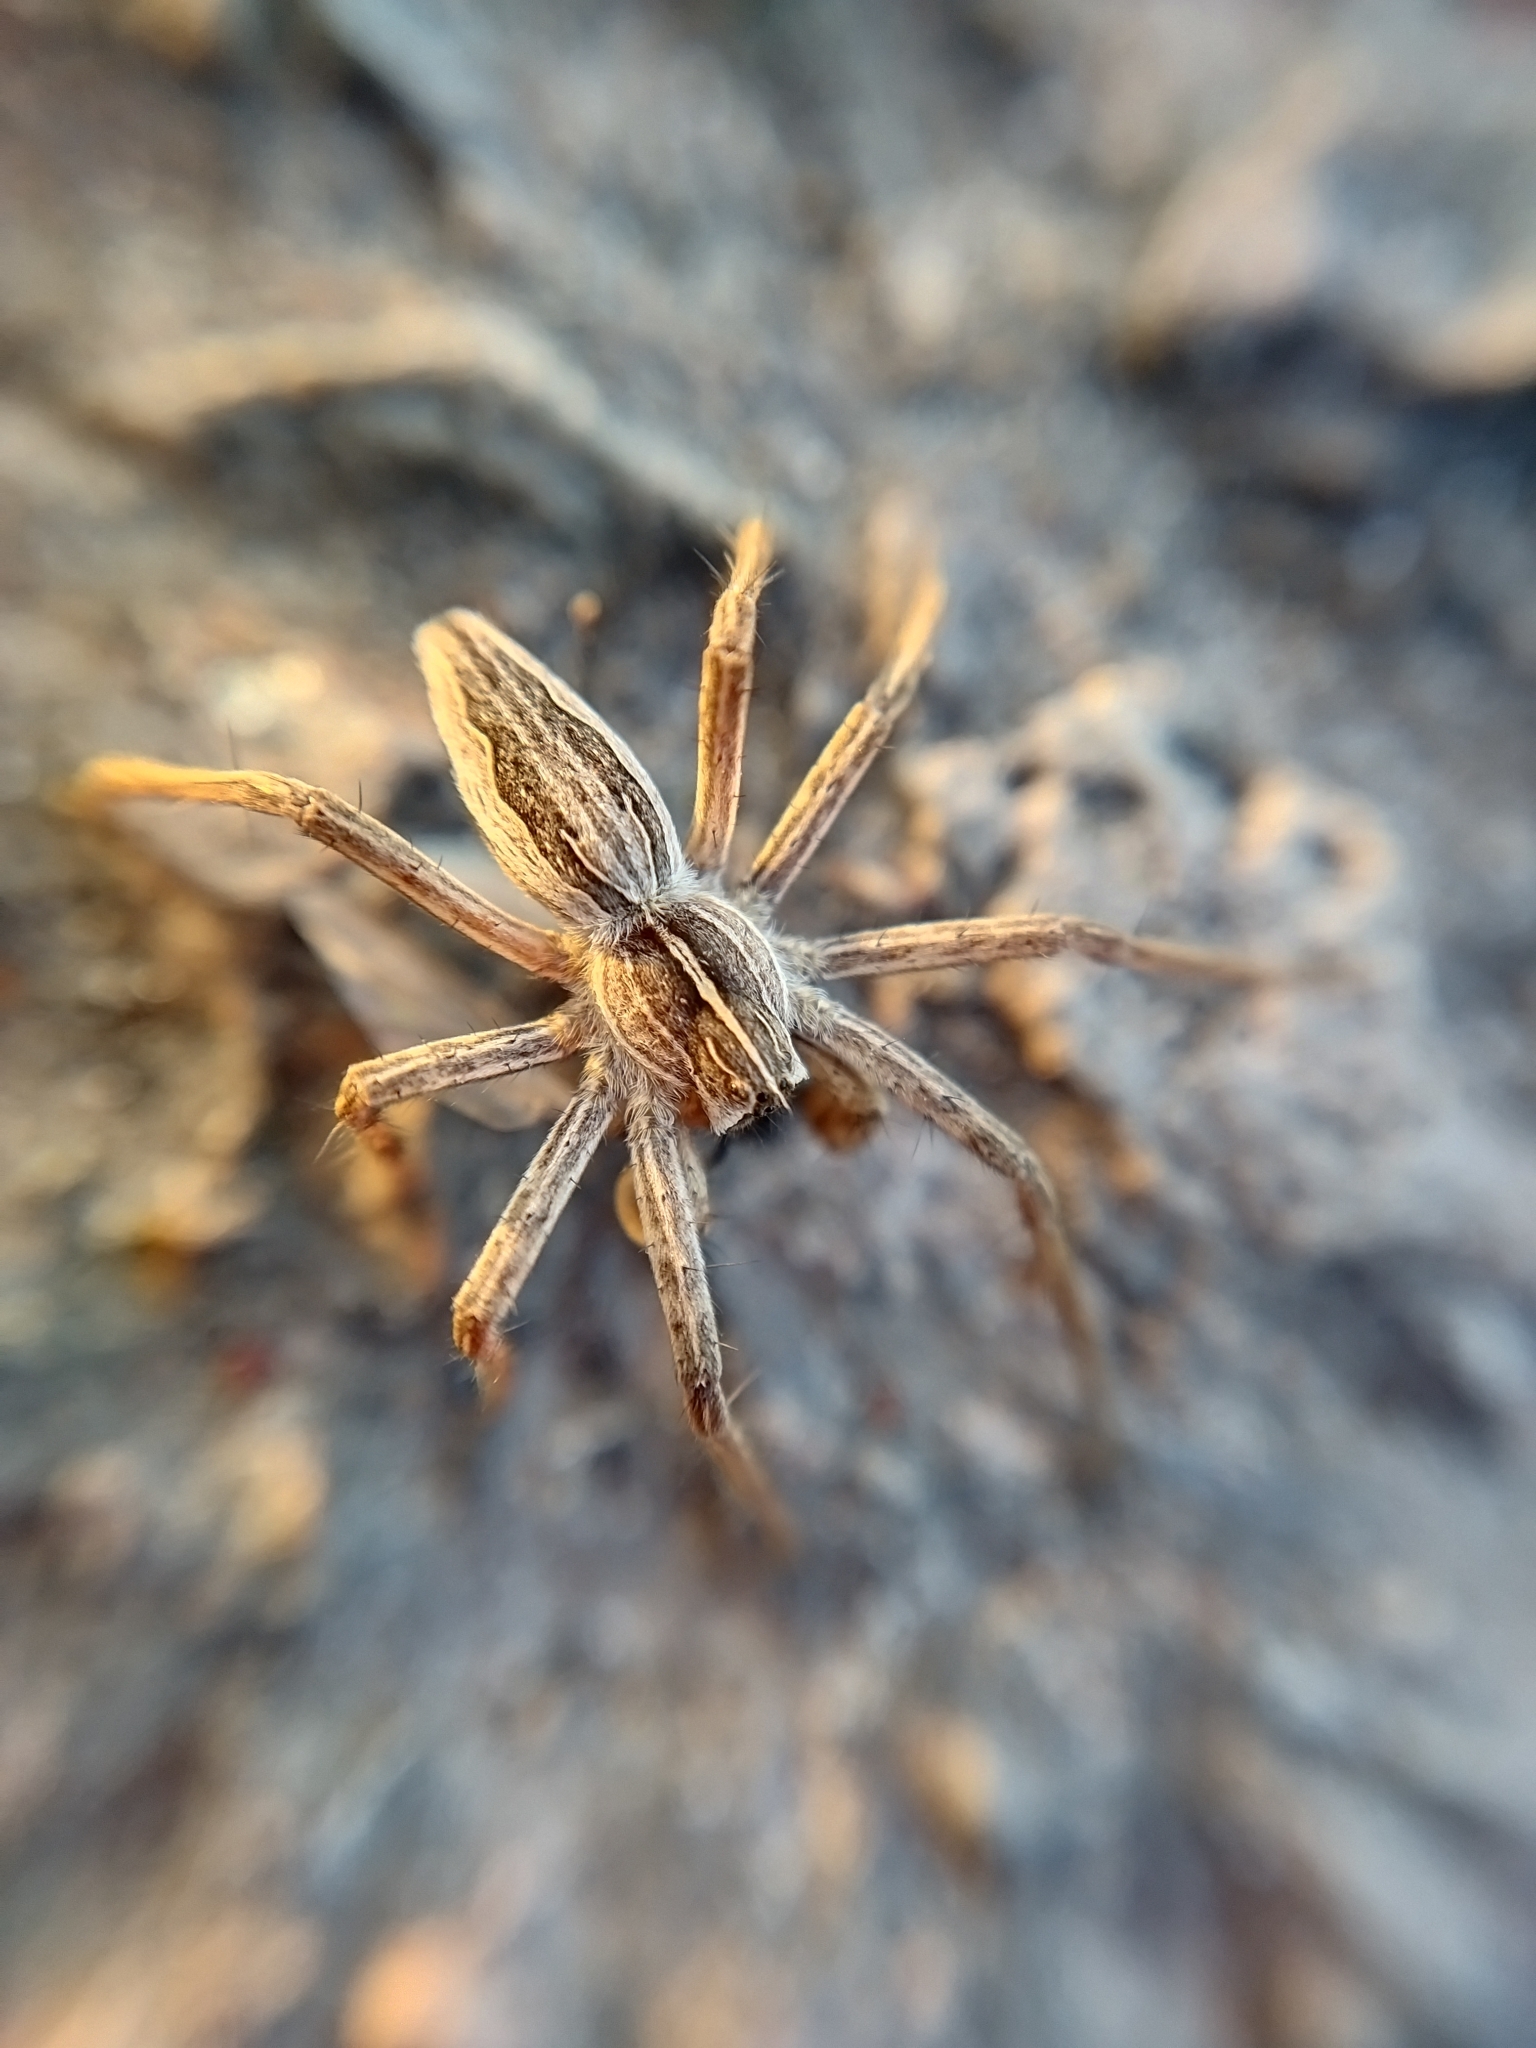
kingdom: Animalia
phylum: Arthropoda
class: Arachnida
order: Araneae
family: Pisauridae
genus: Pisaura
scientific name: Pisaura mirabilis
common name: Tent spider
